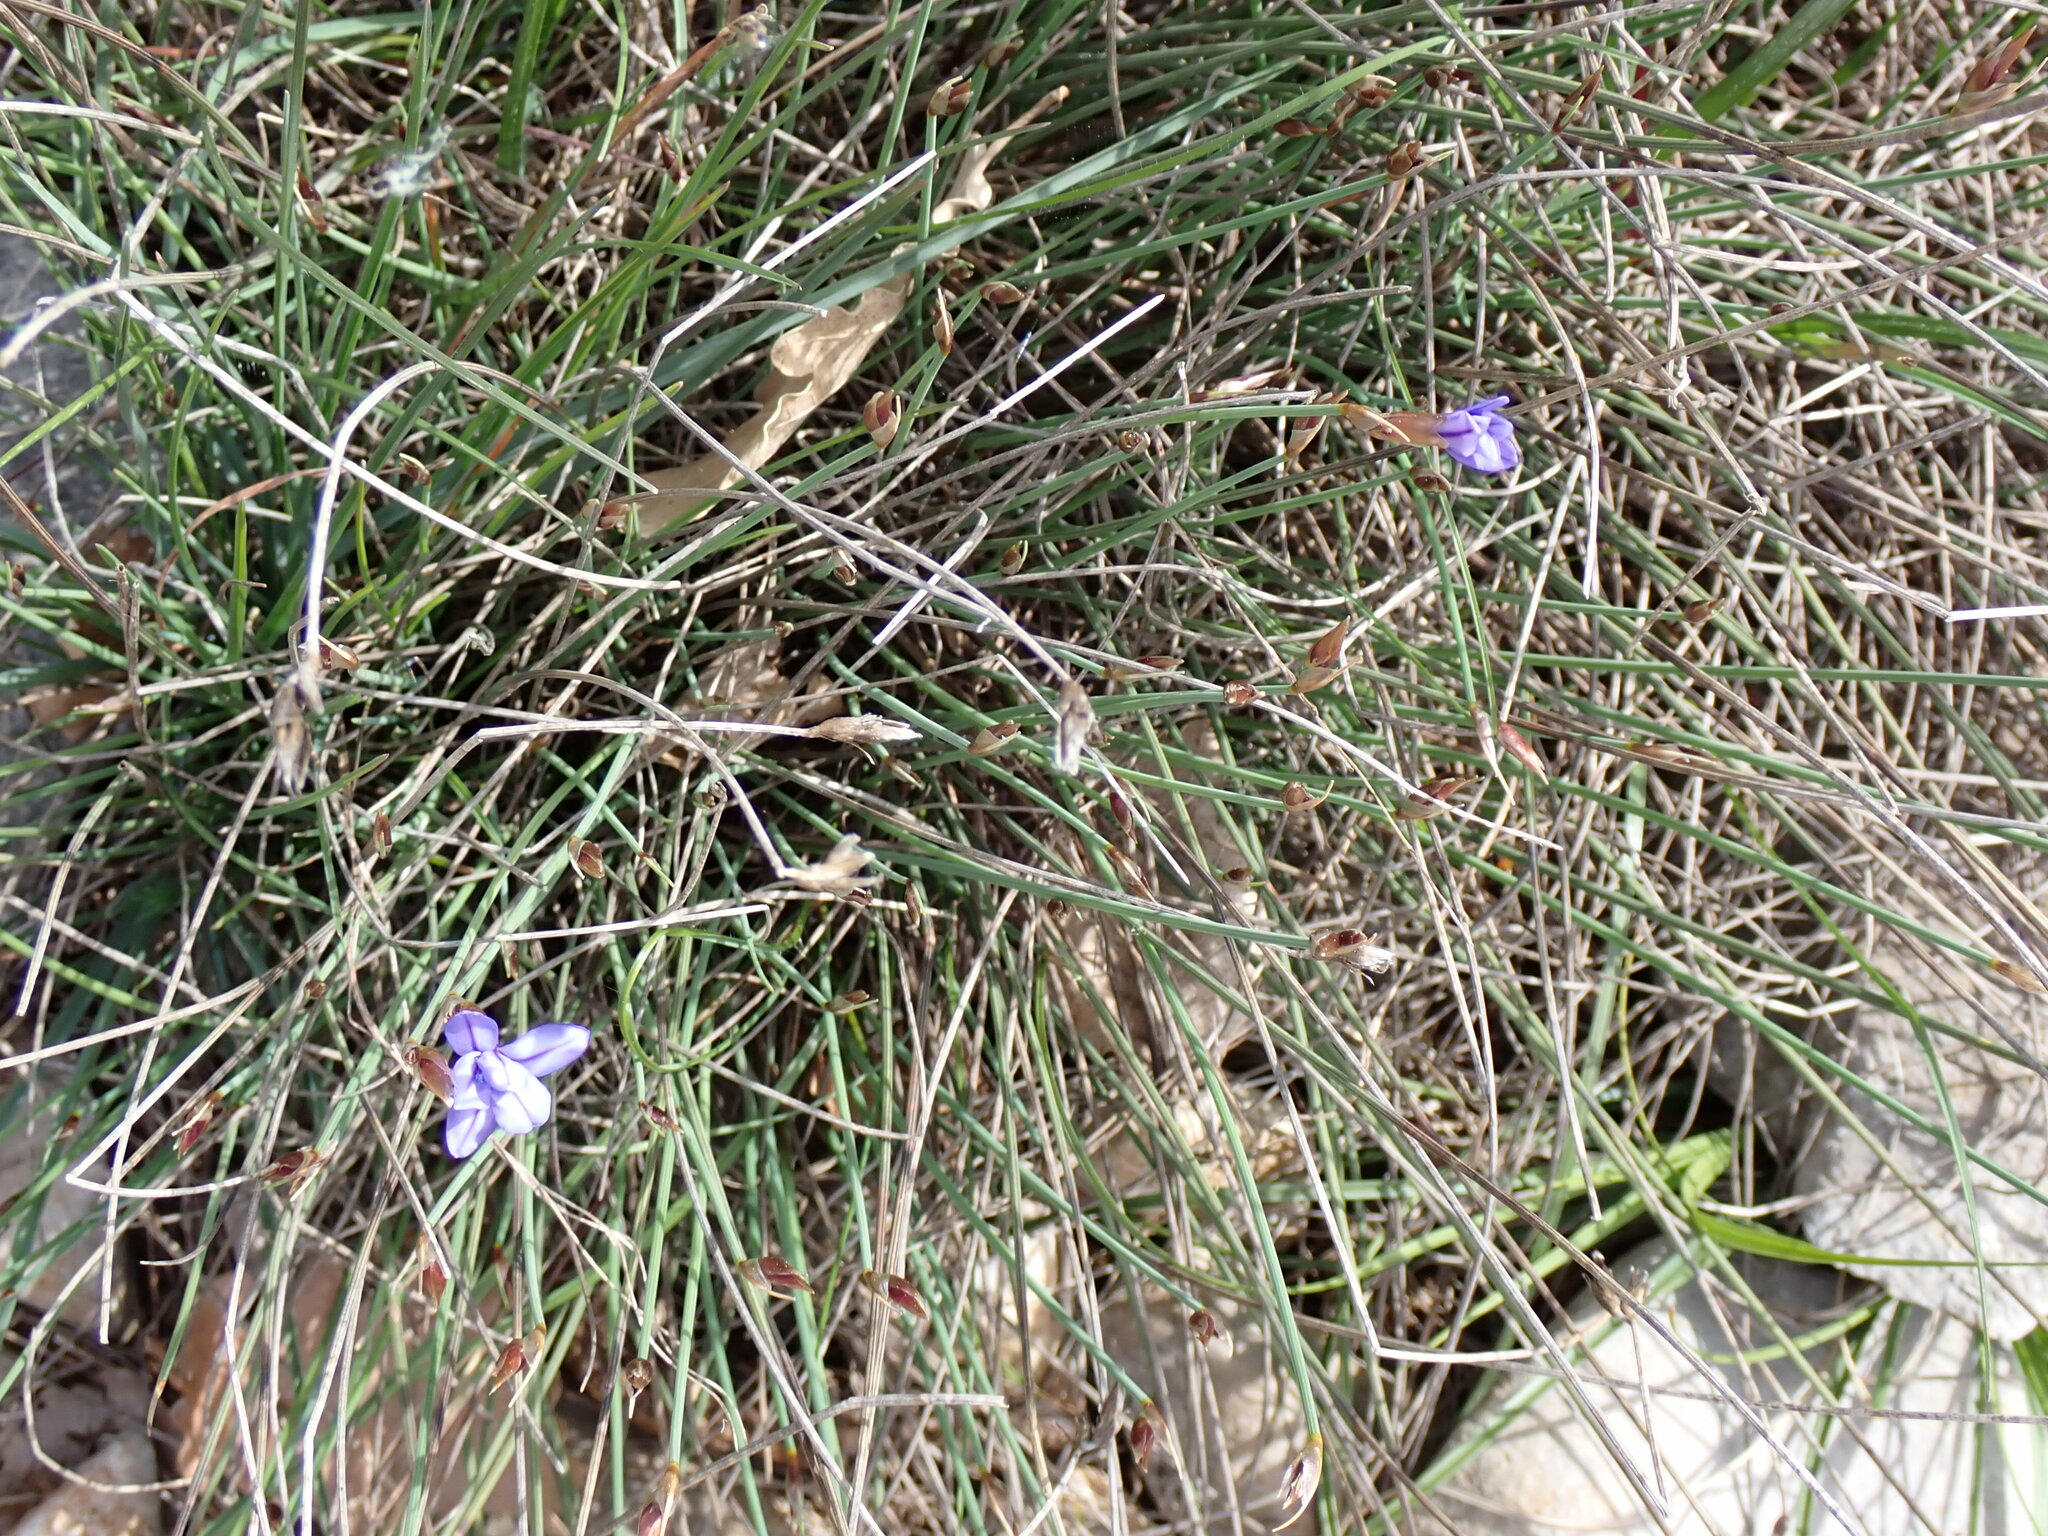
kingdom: Plantae
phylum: Tracheophyta
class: Liliopsida
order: Asparagales
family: Asparagaceae
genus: Aphyllanthes
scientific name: Aphyllanthes monspeliensis
